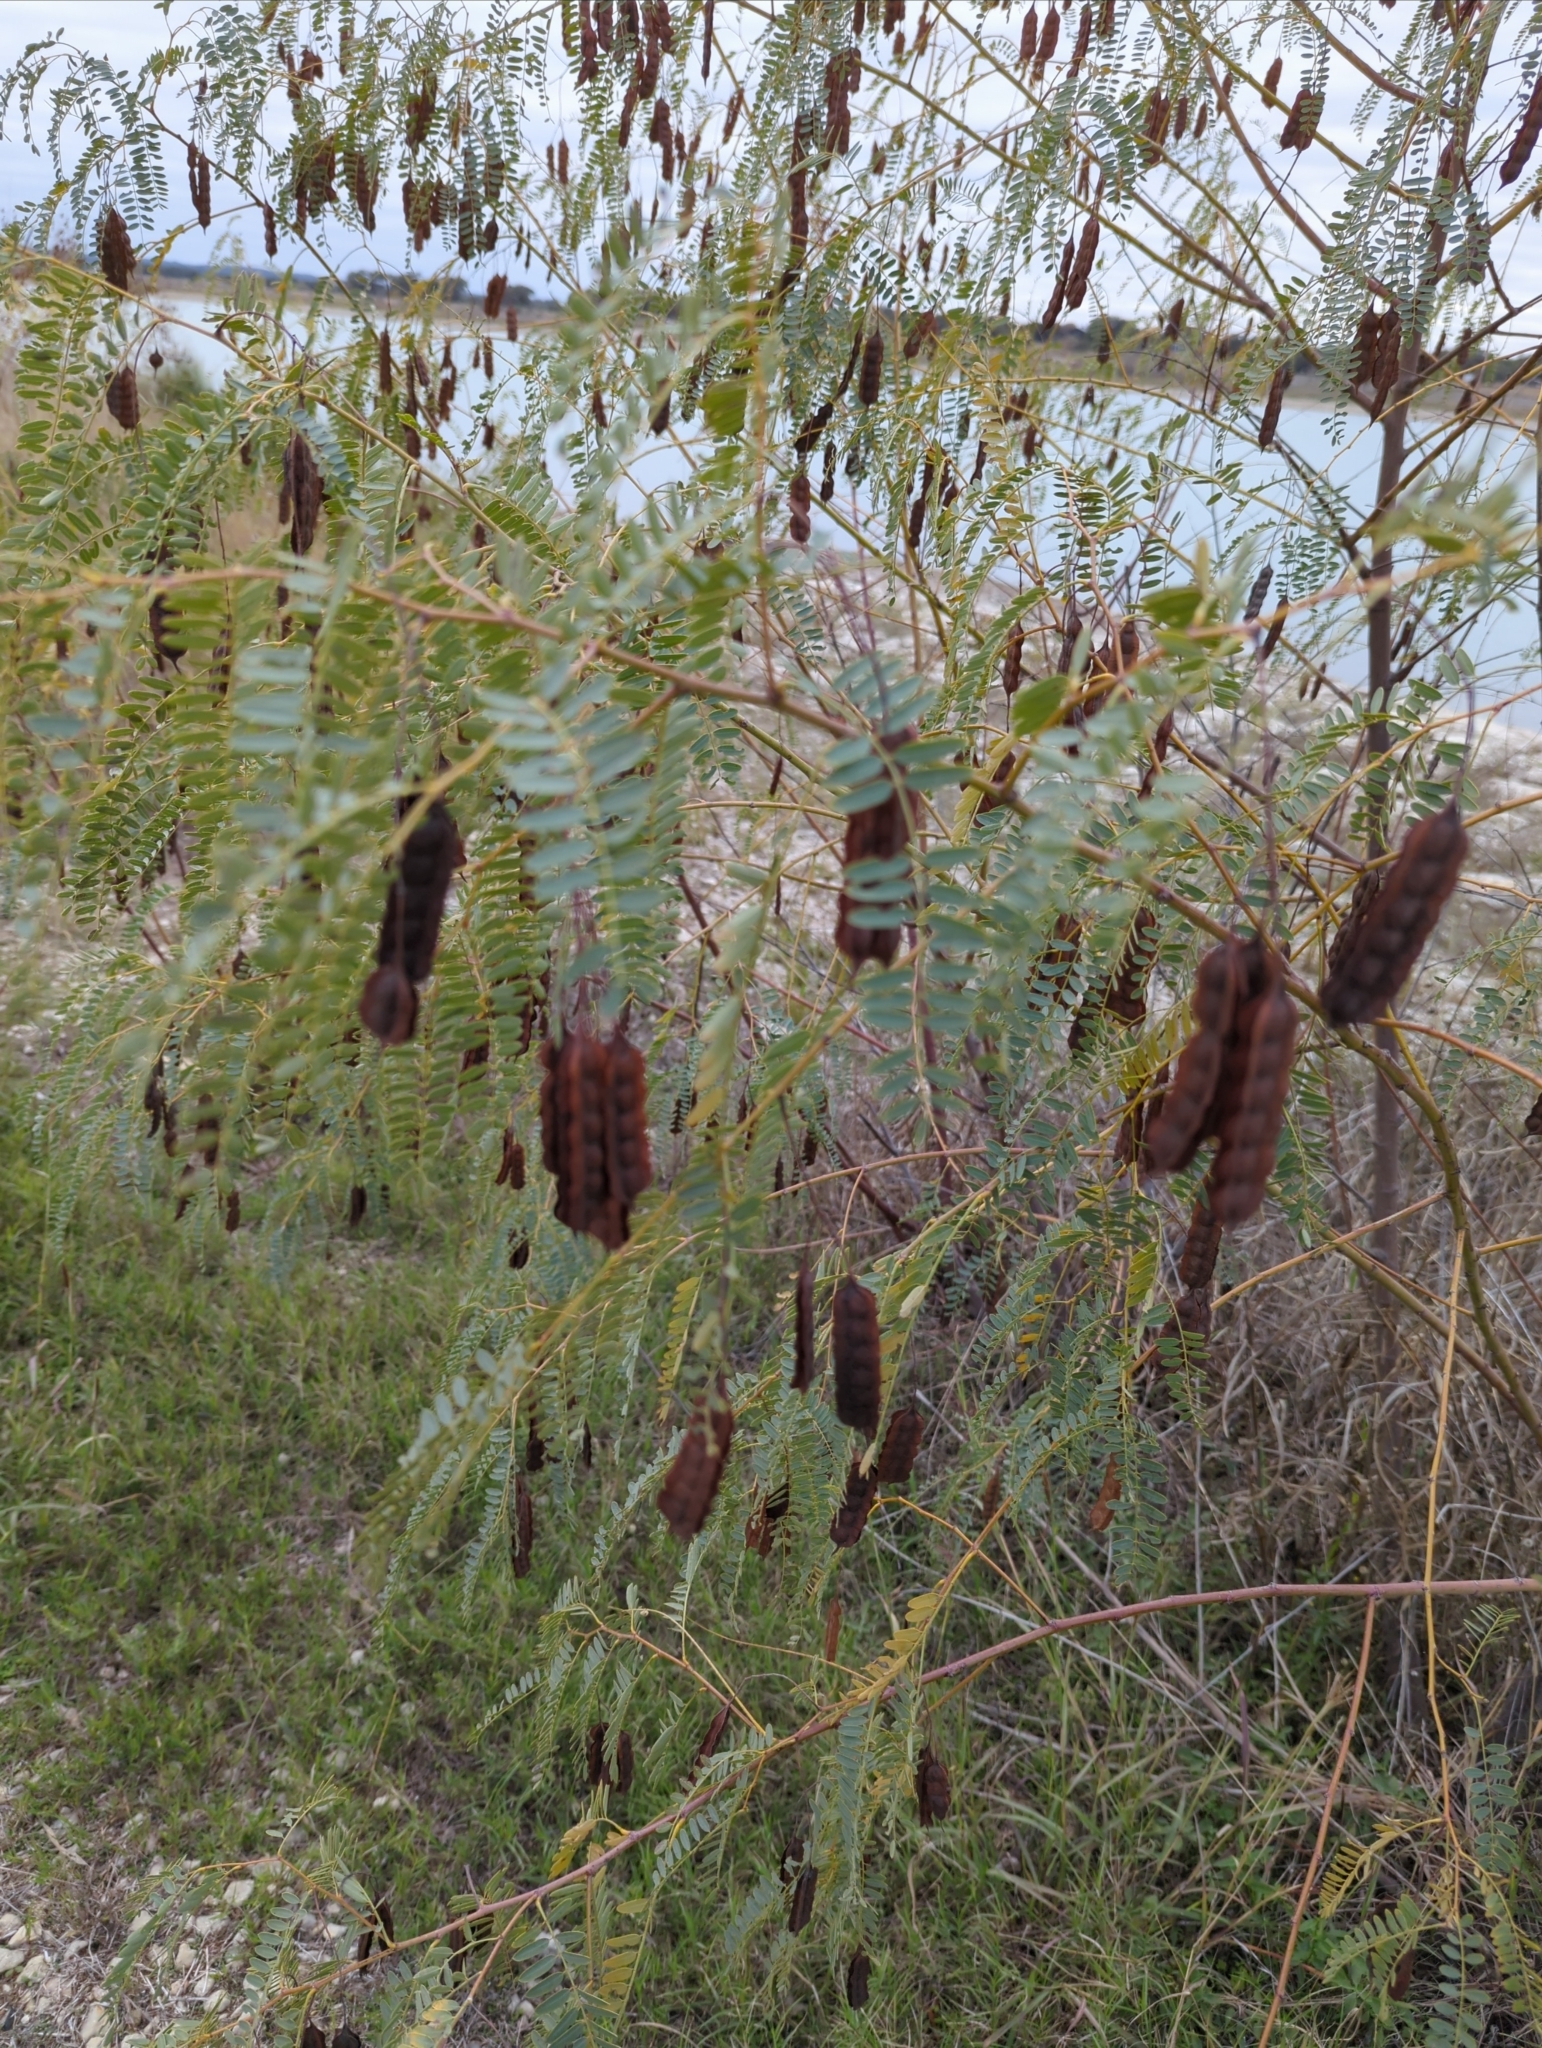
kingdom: Plantae
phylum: Tracheophyta
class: Magnoliopsida
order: Fabales
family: Fabaceae
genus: Sesbania
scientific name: Sesbania drummondii
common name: Poison-bean
